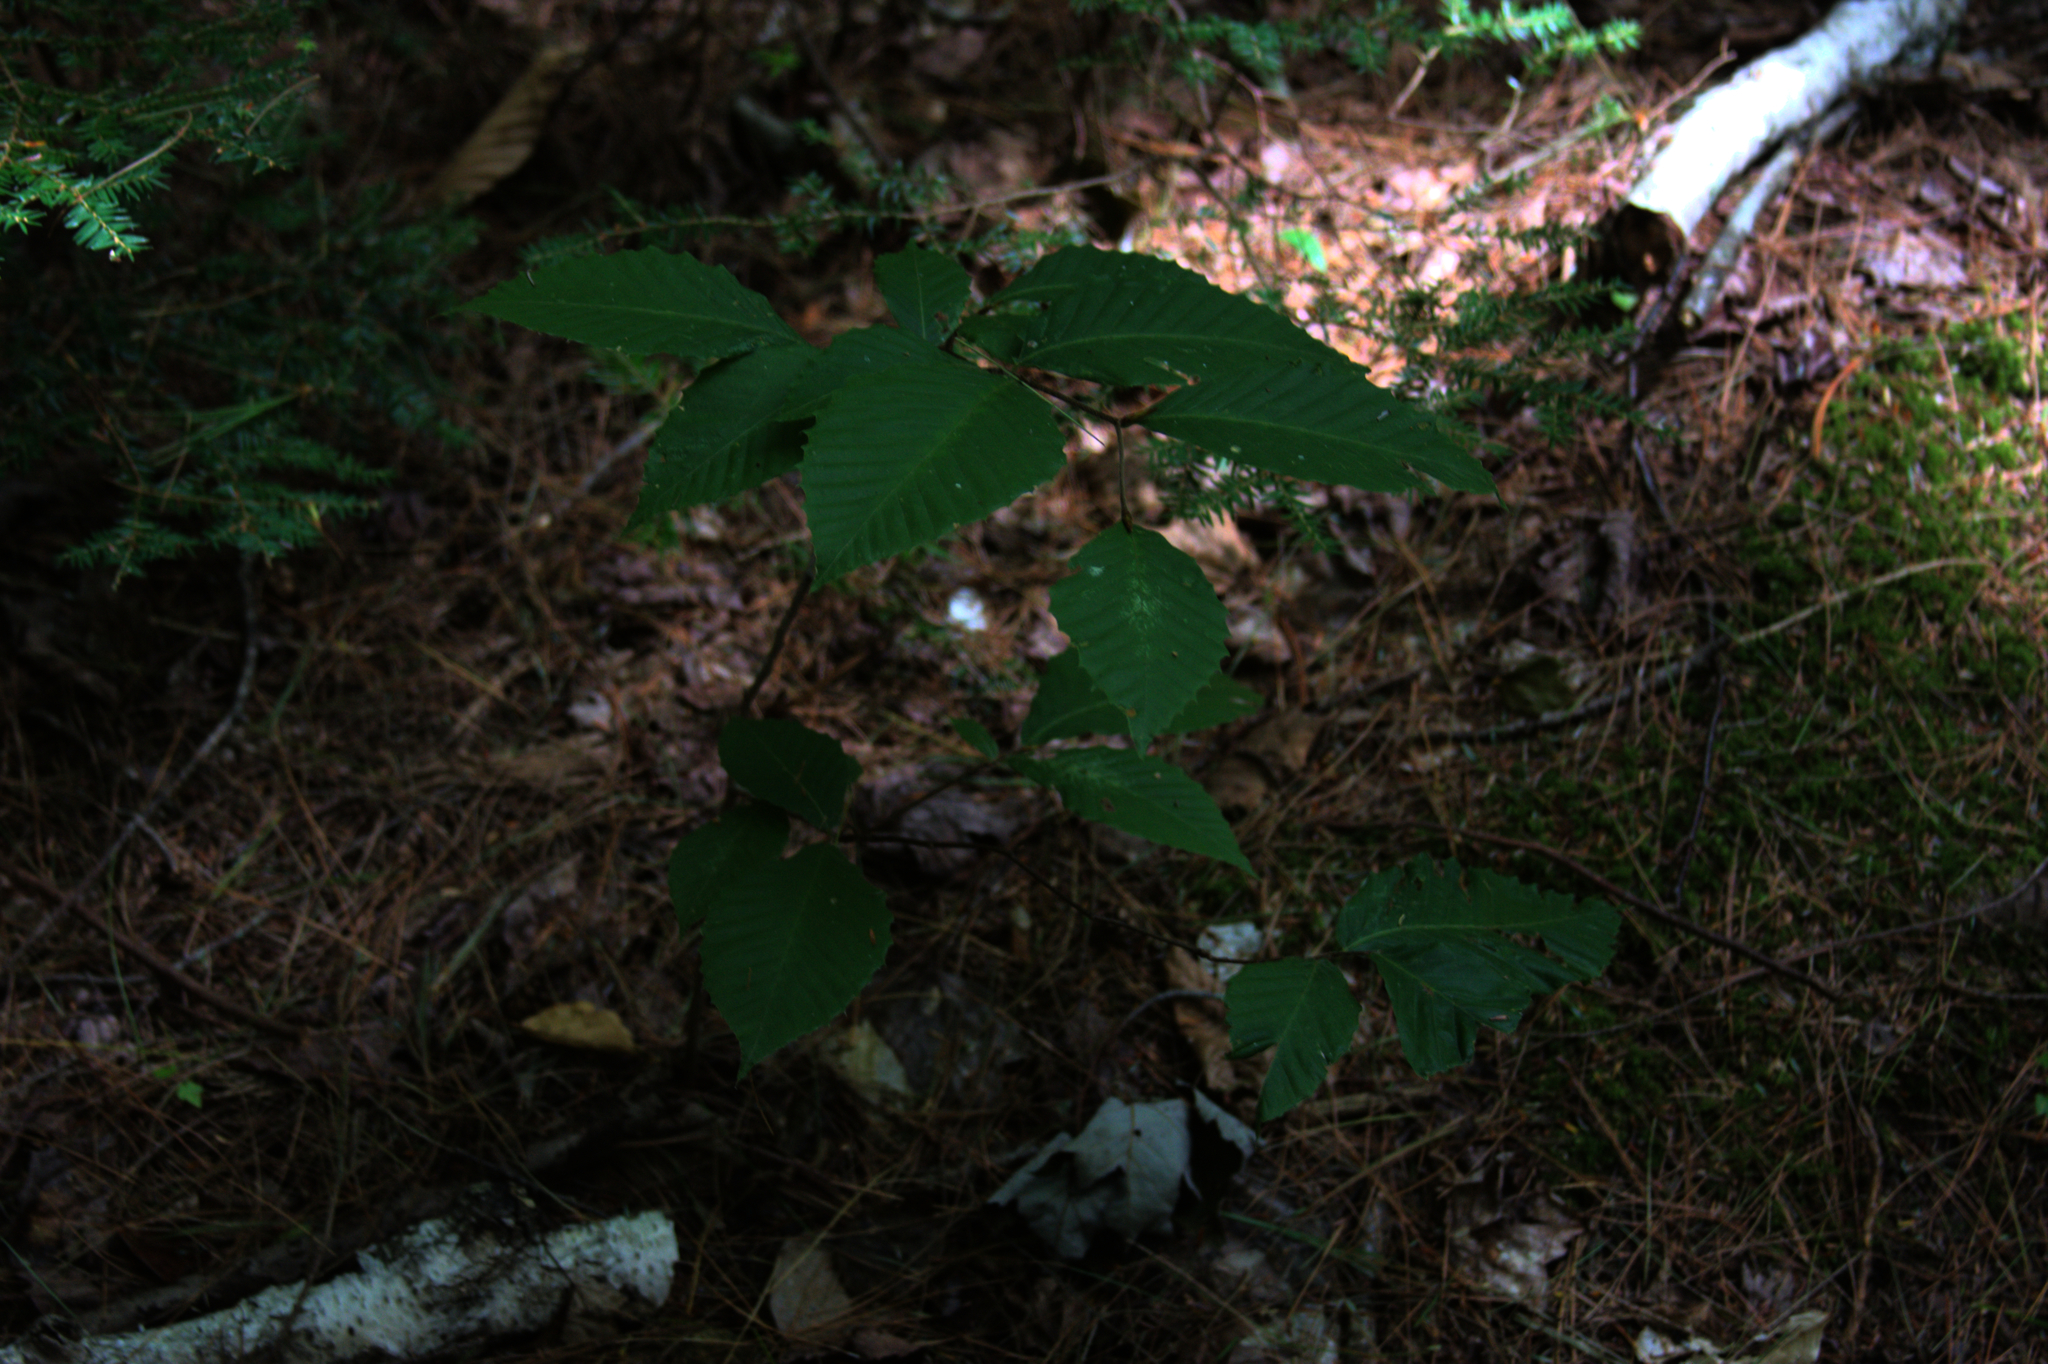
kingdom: Plantae
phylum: Tracheophyta
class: Magnoliopsida
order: Fagales
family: Fagaceae
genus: Fagus
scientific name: Fagus grandifolia
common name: American beech
